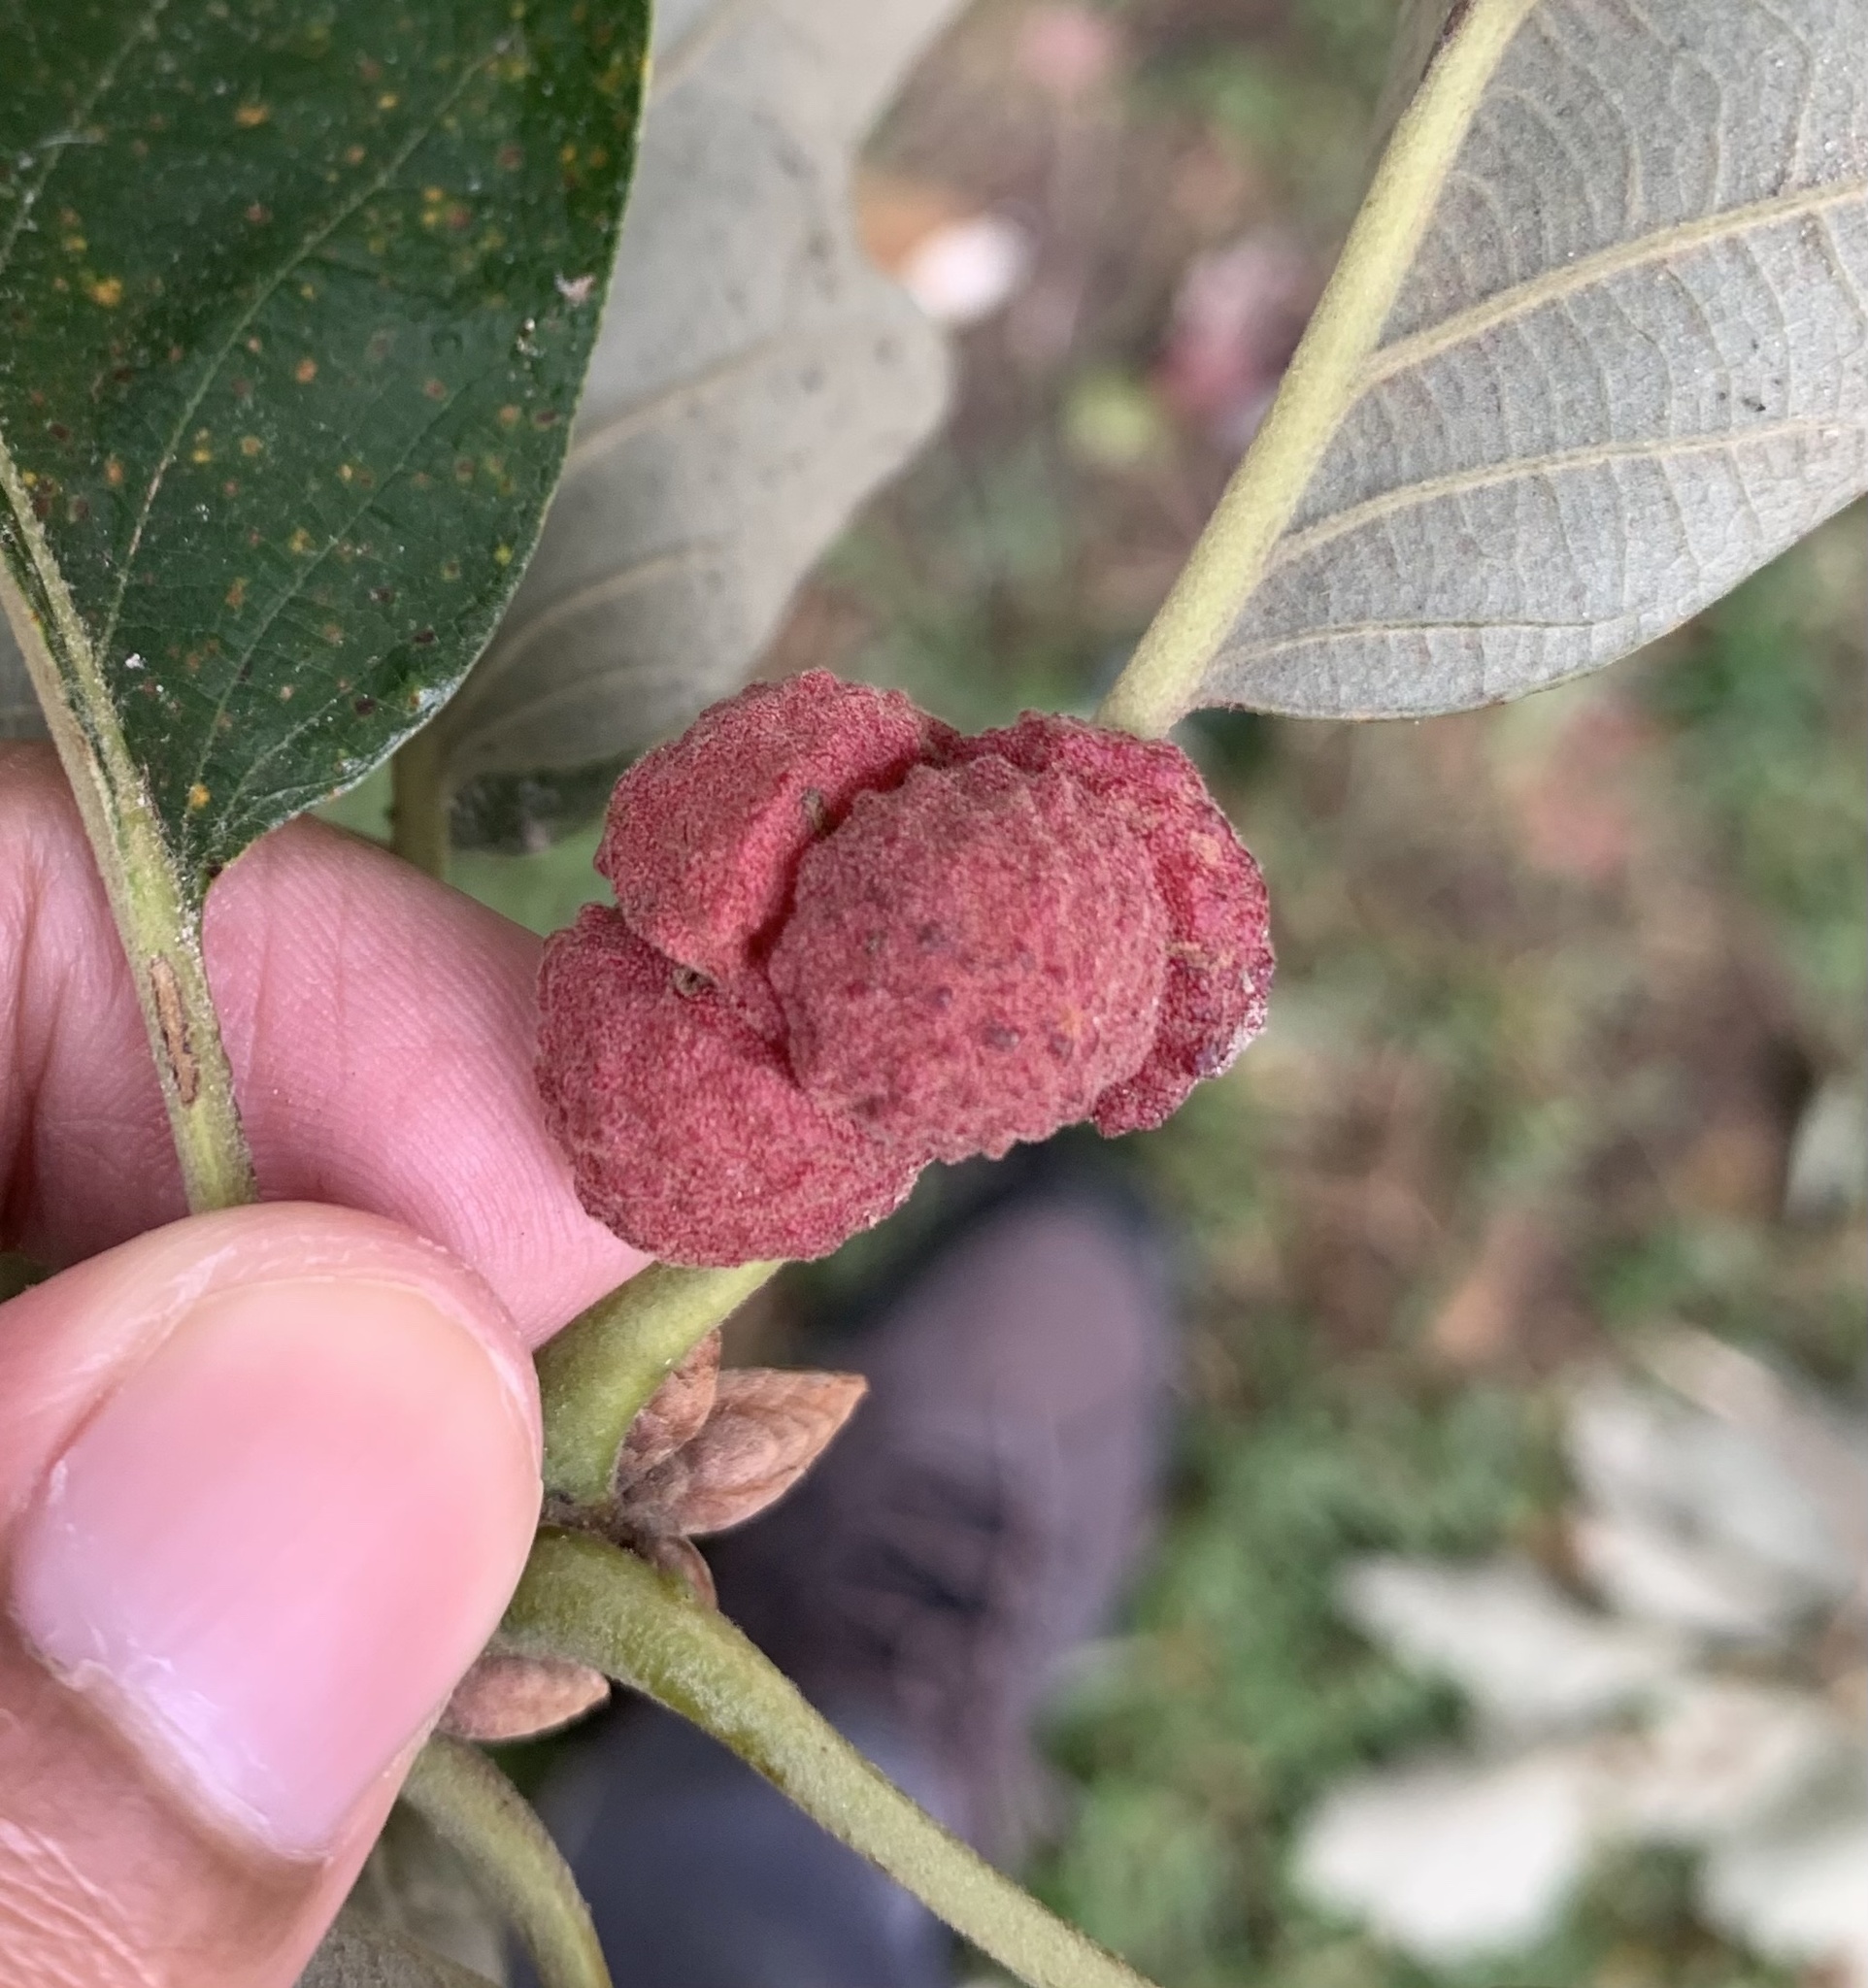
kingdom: Animalia
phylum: Arthropoda
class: Insecta
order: Hymenoptera
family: Cynipidae
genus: Andricus
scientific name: Andricus
